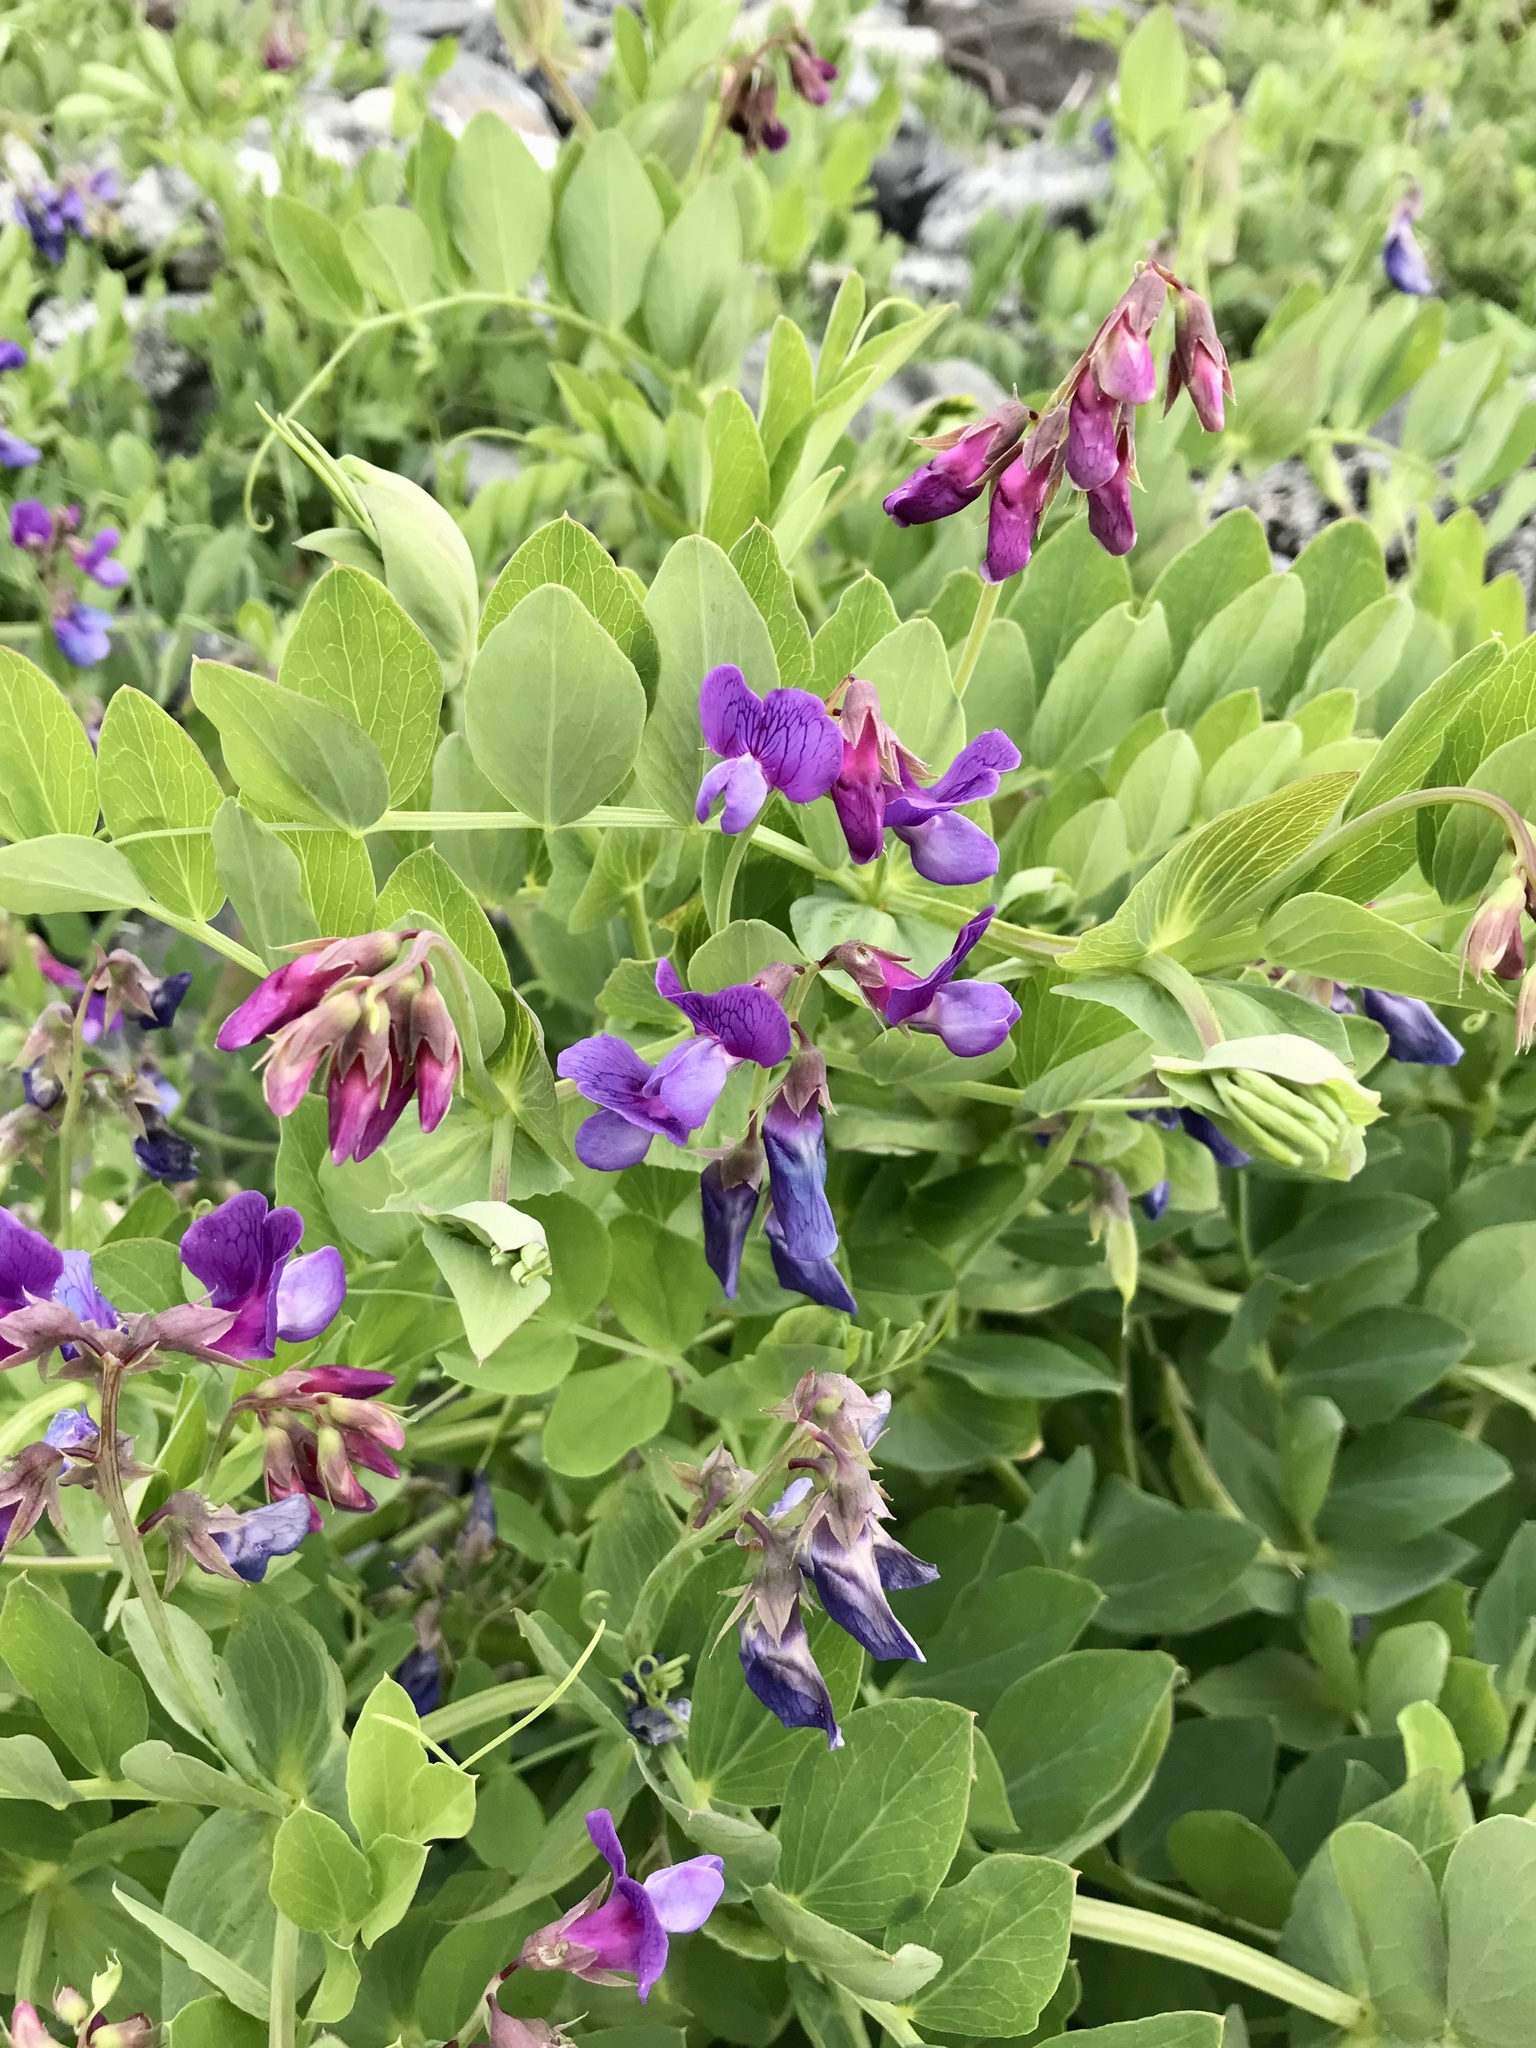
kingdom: Plantae
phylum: Tracheophyta
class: Magnoliopsida
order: Fabales
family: Fabaceae
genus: Lathyrus
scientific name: Lathyrus japonicus
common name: Sea pea
